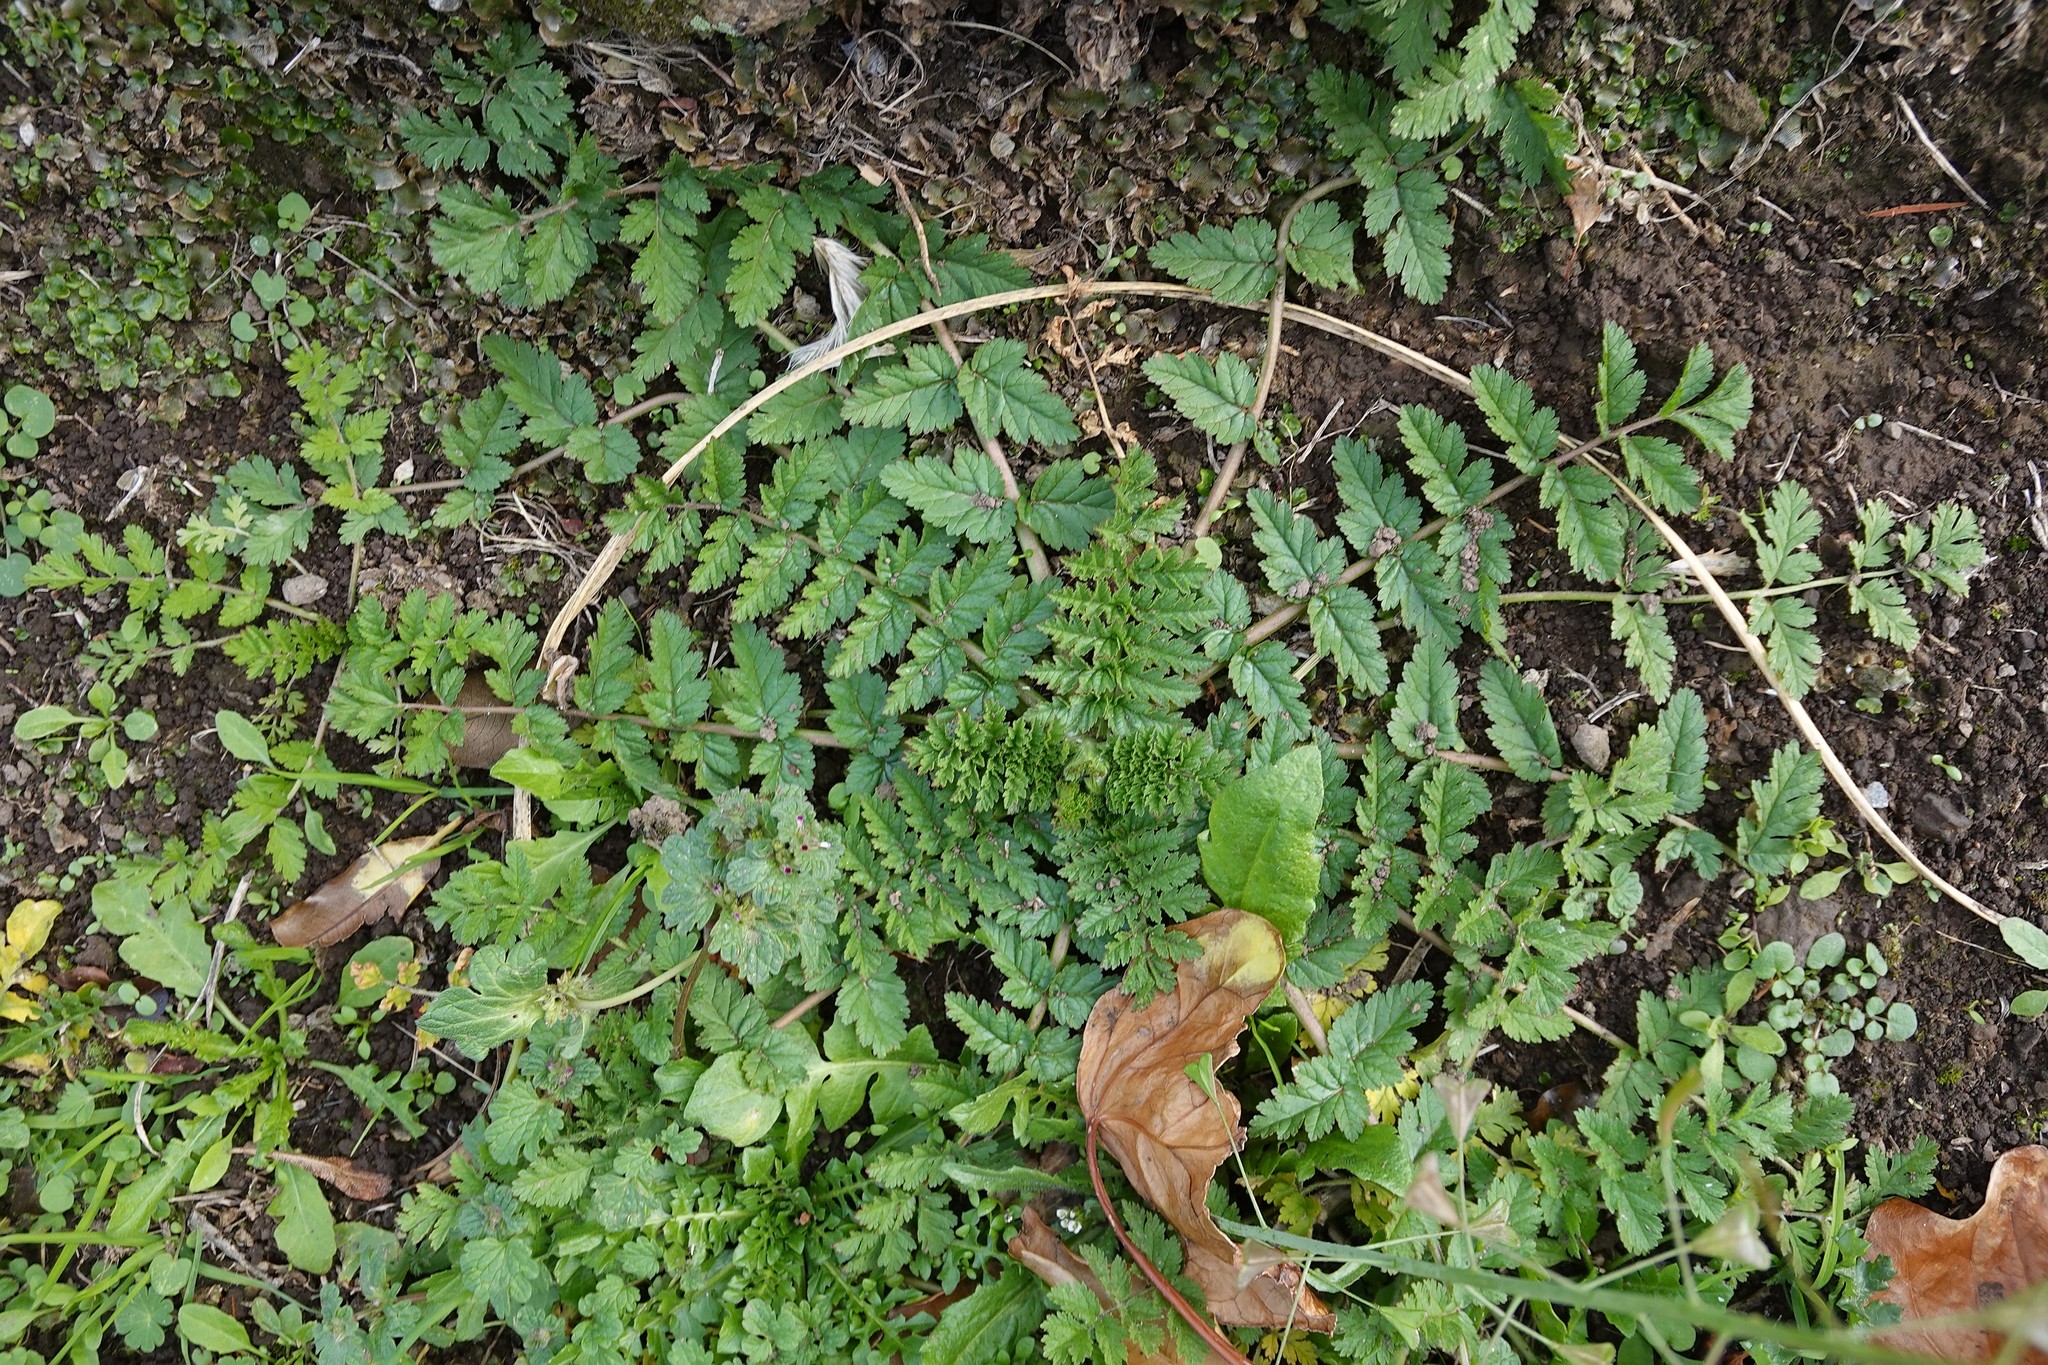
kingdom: Plantae
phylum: Tracheophyta
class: Magnoliopsida
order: Geraniales
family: Geraniaceae
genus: Erodium
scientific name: Erodium moschatum
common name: Musk stork's-bill
